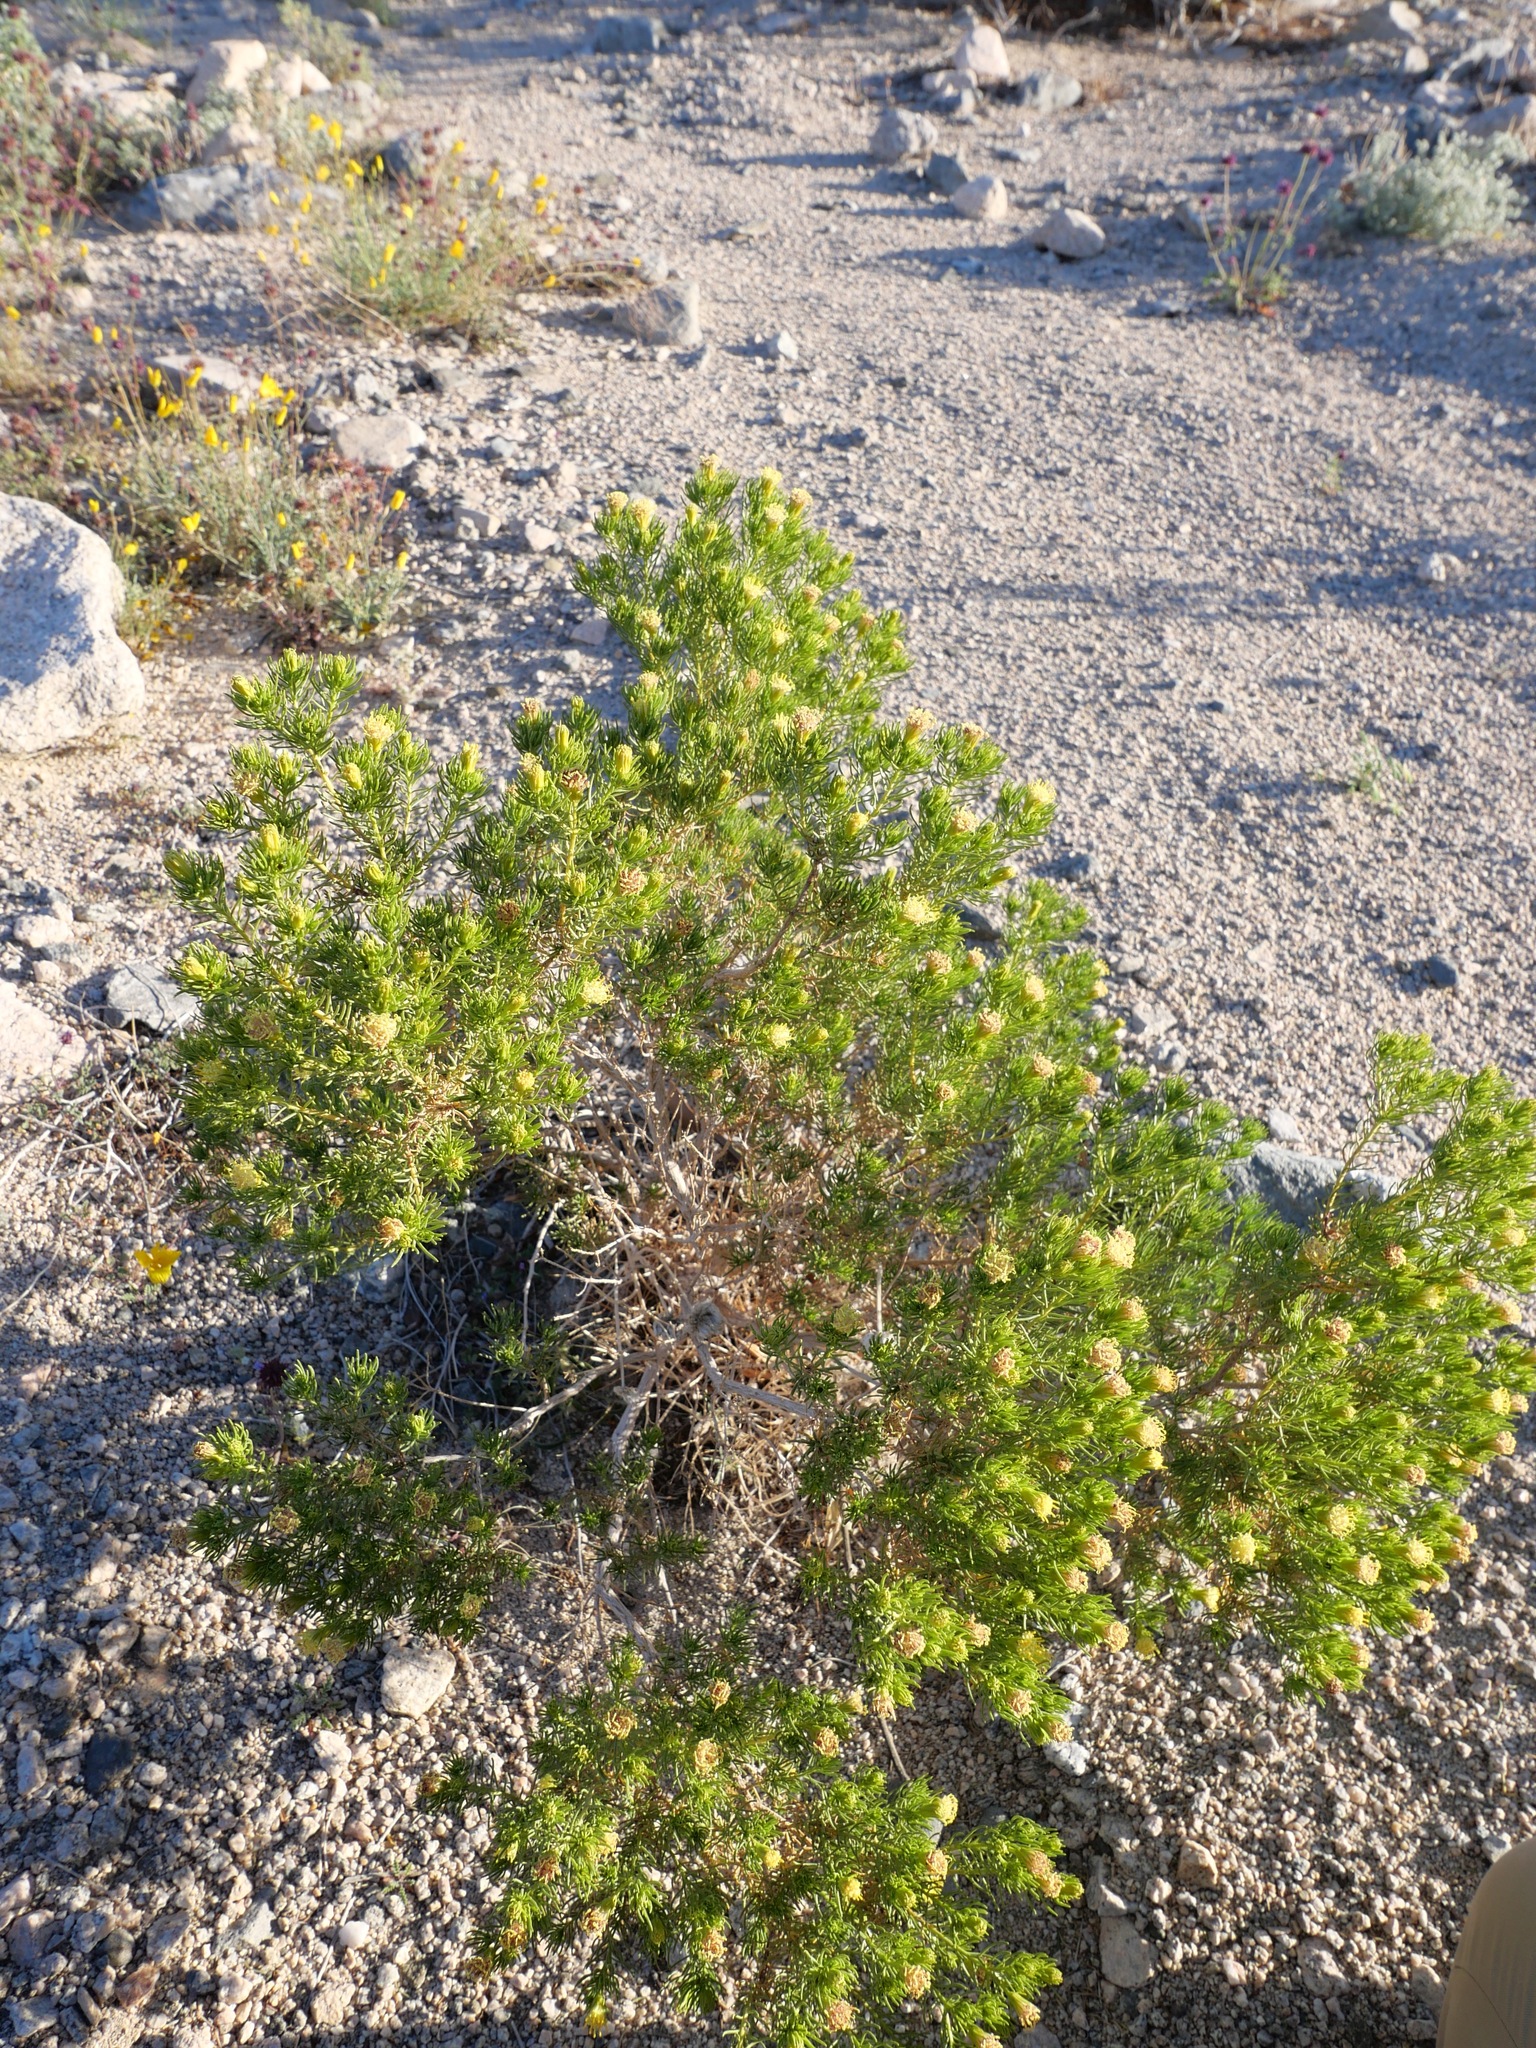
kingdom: Plantae
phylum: Tracheophyta
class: Magnoliopsida
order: Asterales
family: Asteraceae
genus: Peucephyllum
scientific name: Peucephyllum schottii
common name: Pygmy-cedar
